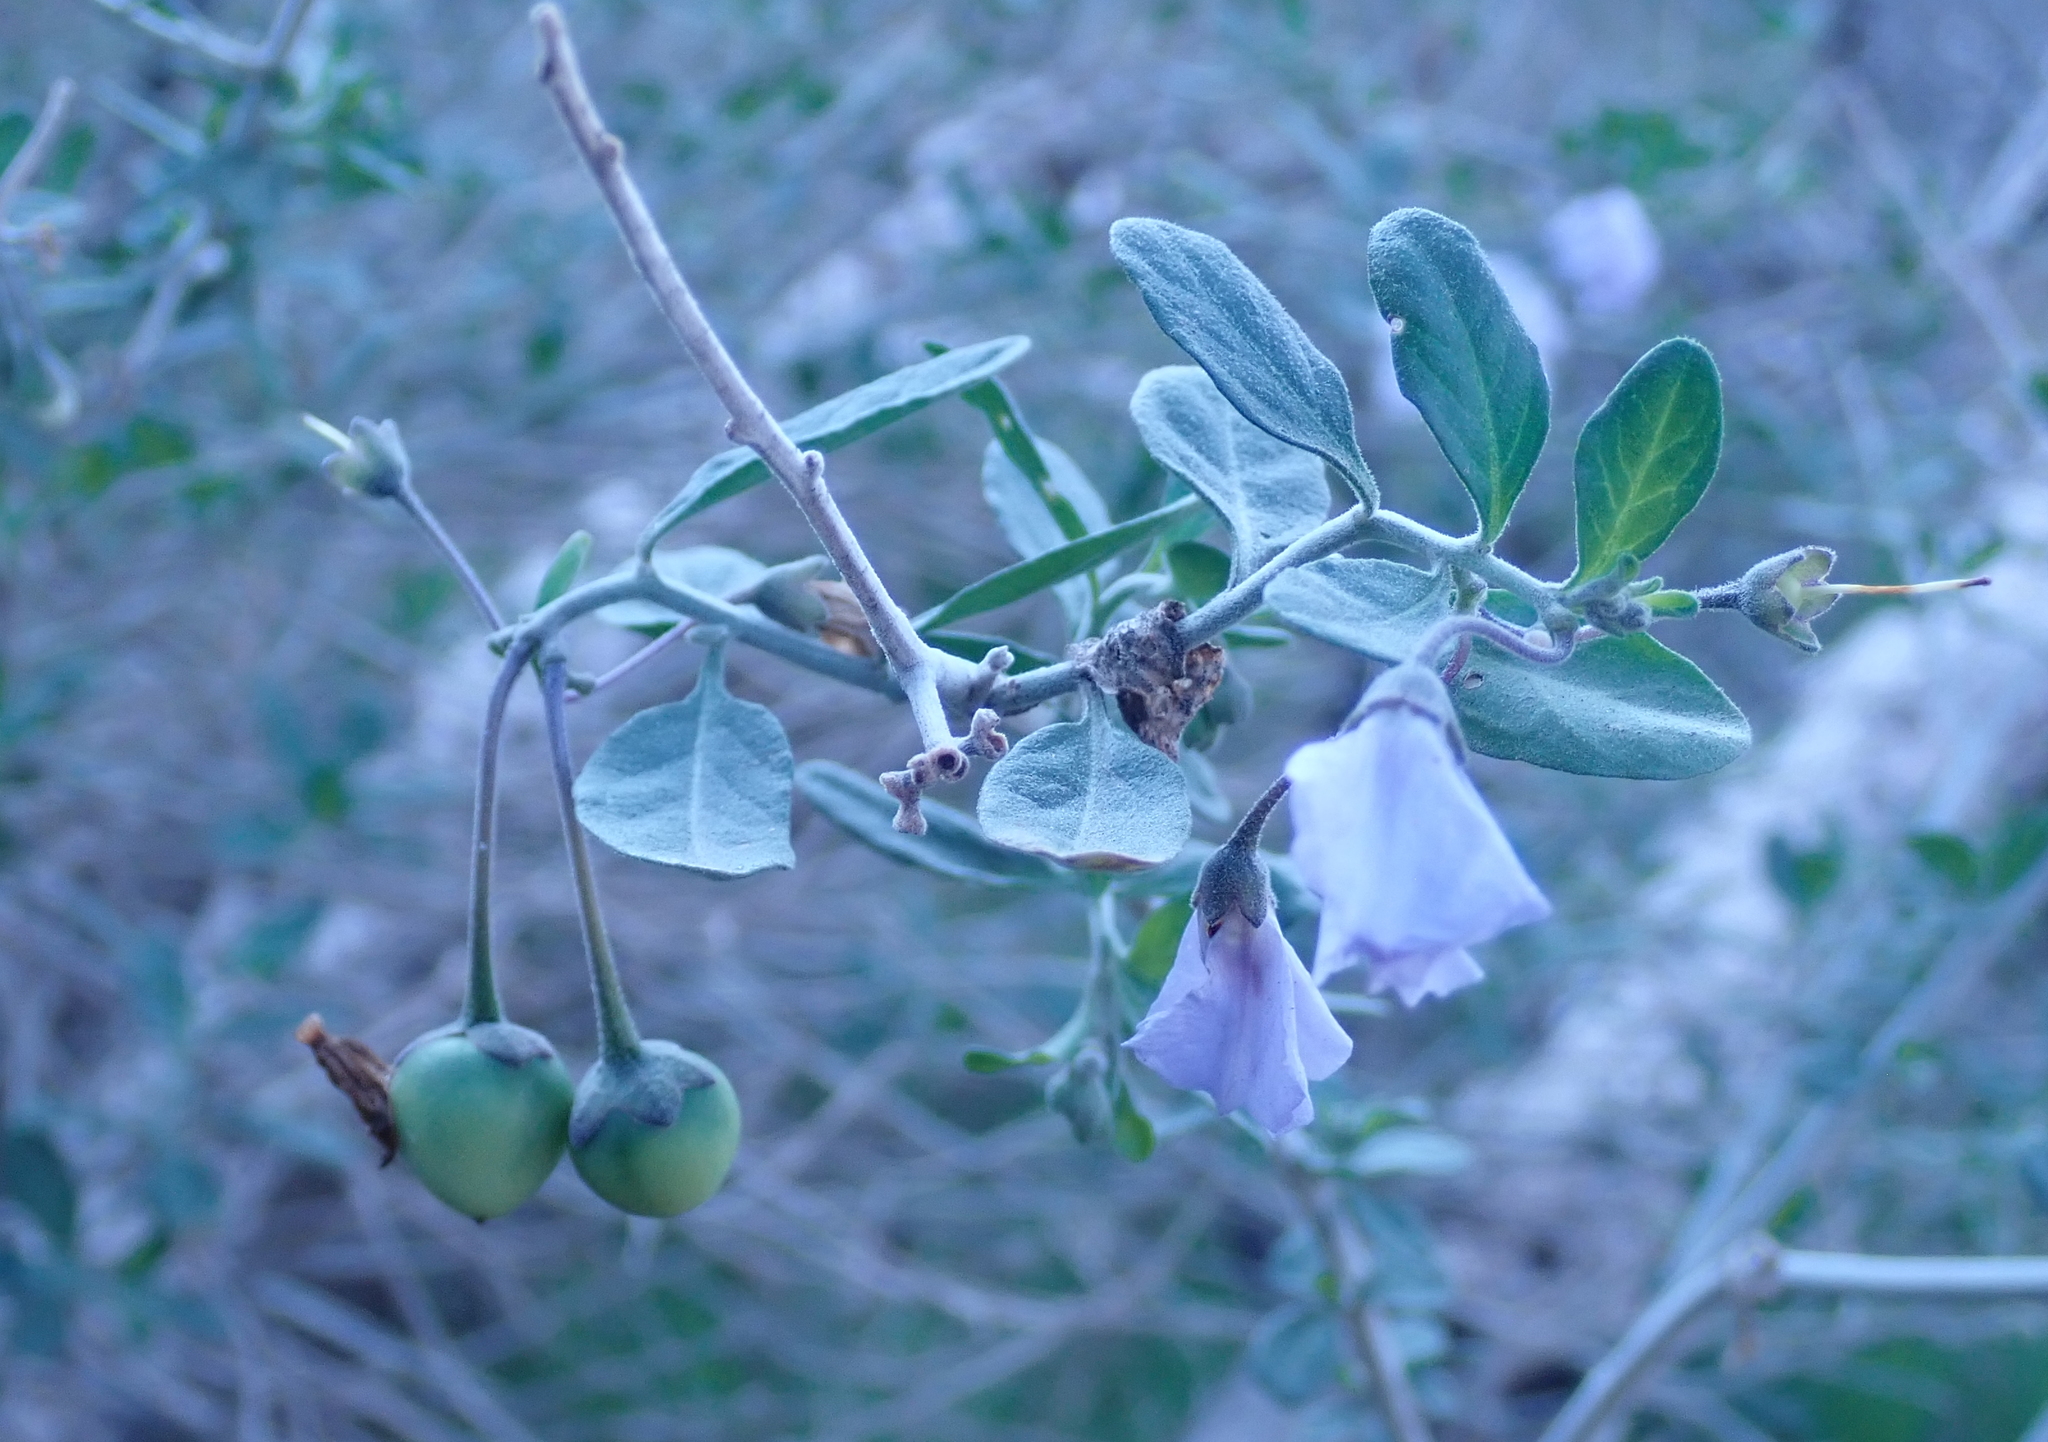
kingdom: Plantae
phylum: Tracheophyta
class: Magnoliopsida
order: Solanales
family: Solanaceae
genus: Solanum
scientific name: Solanum umbelliferum
